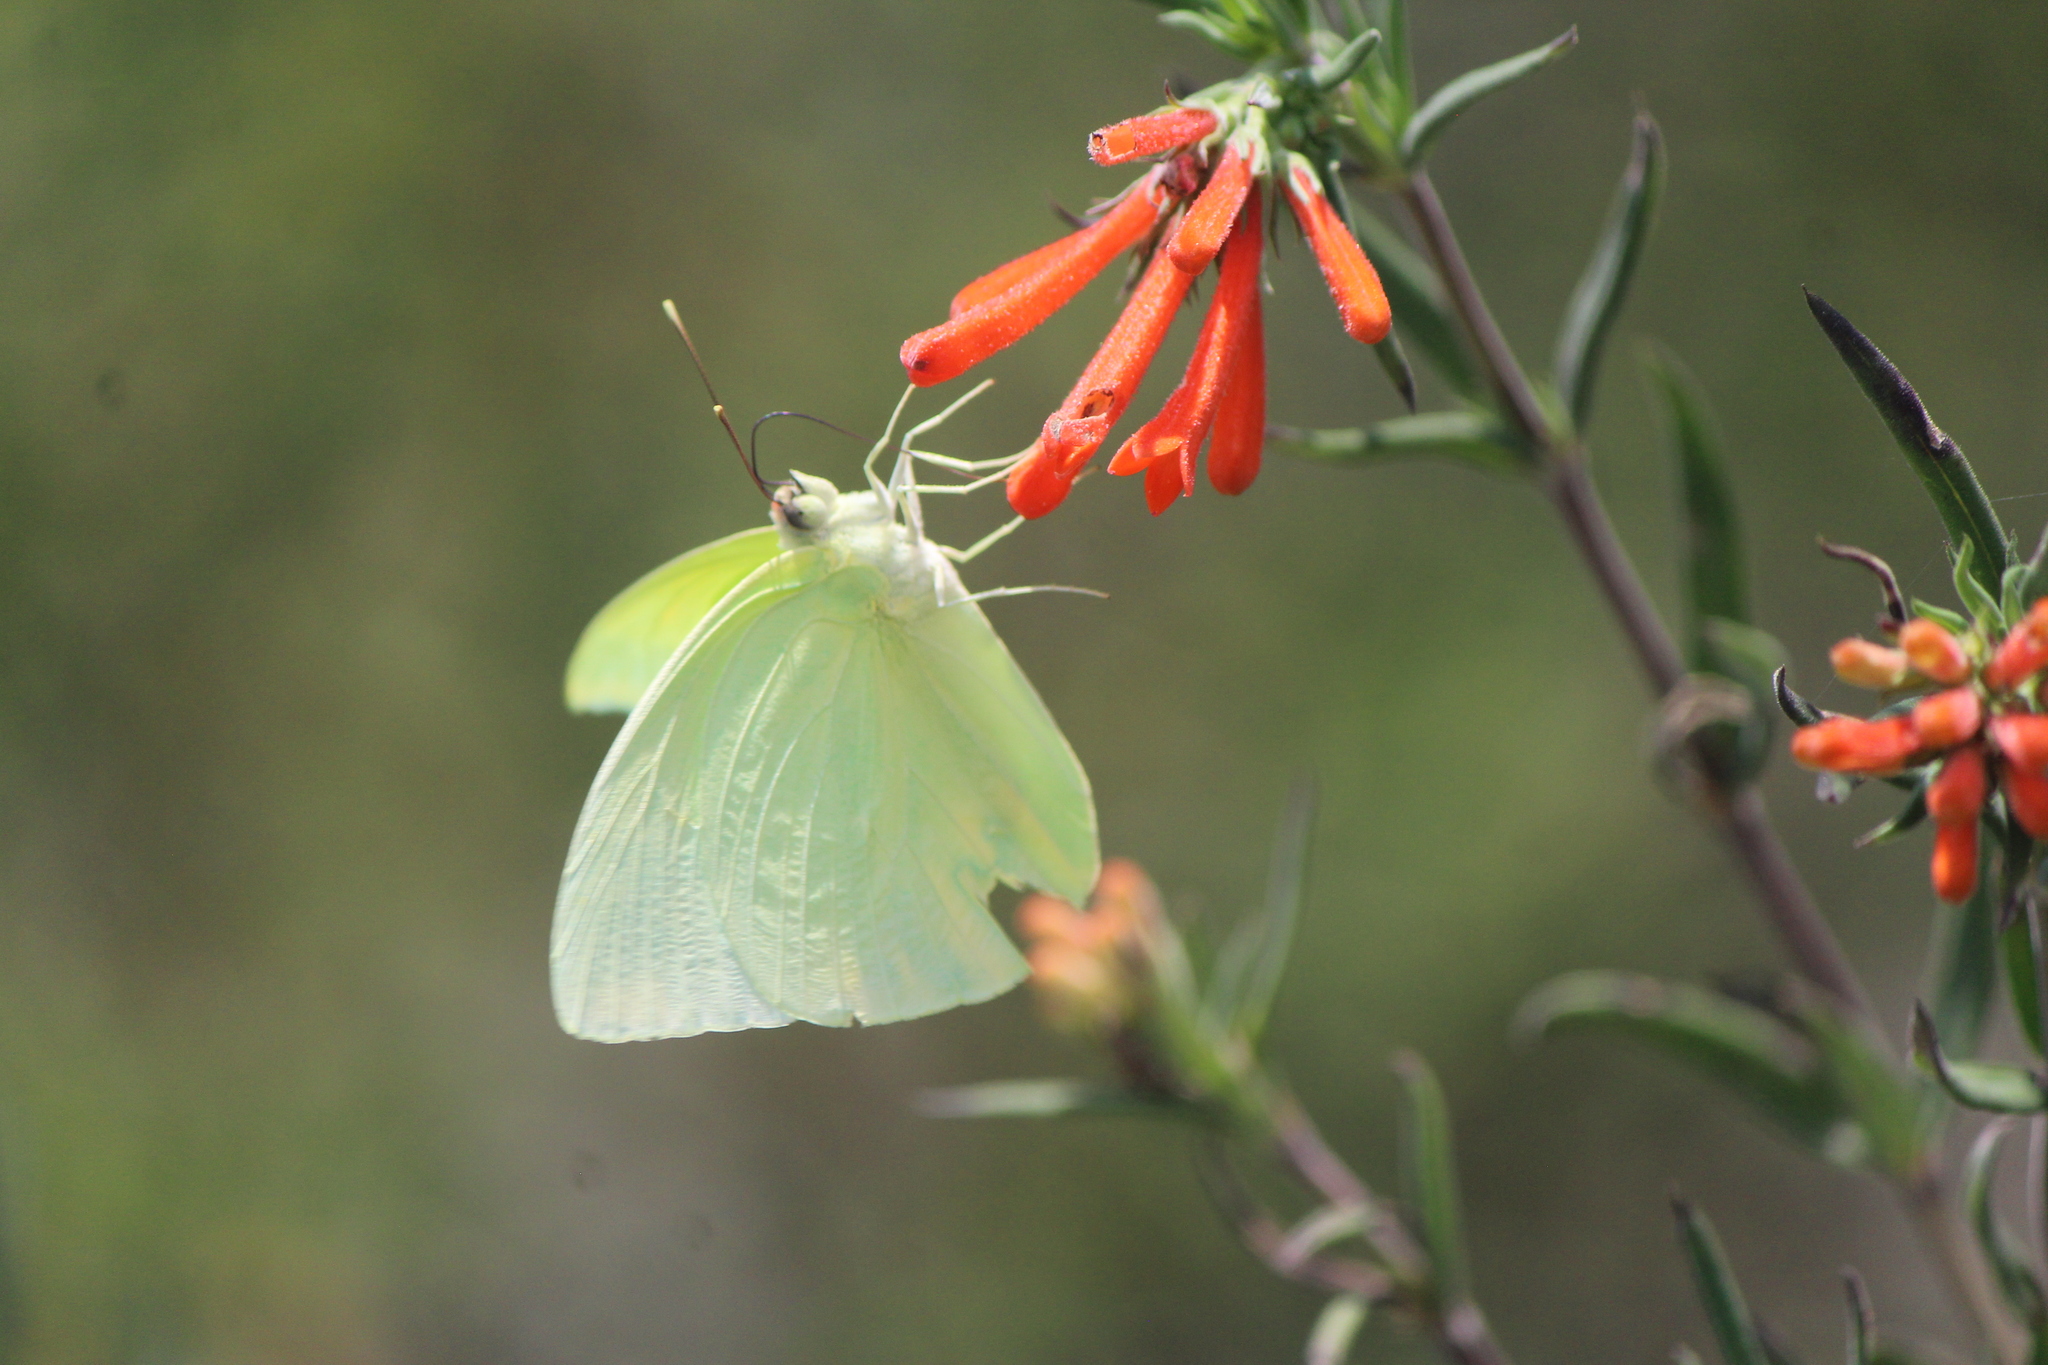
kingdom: Animalia
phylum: Arthropoda
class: Insecta
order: Lepidoptera
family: Pieridae
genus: Aphrissa
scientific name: Aphrissa statira
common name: Statira sulphur
